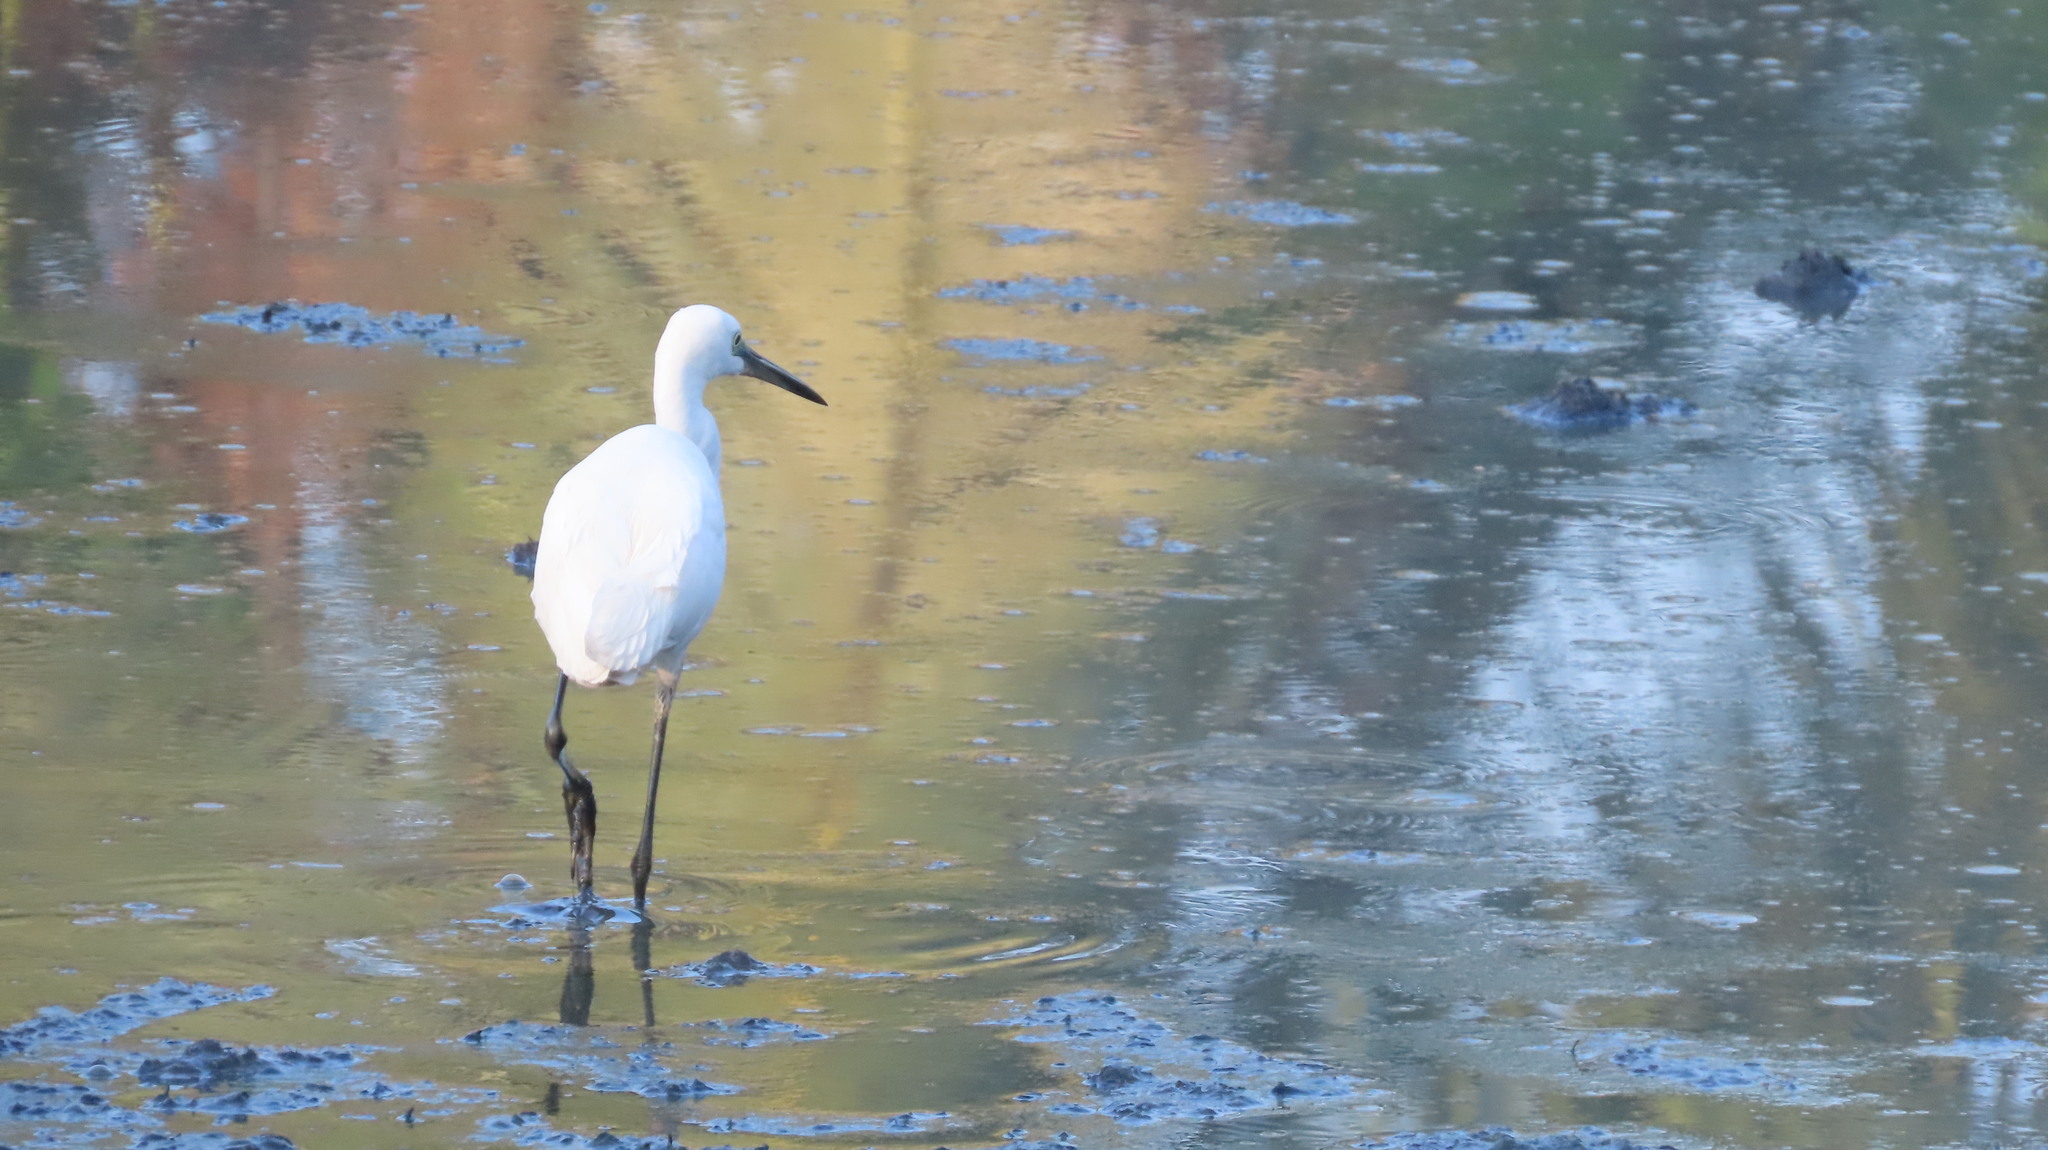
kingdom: Animalia
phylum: Chordata
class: Aves
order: Pelecaniformes
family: Ardeidae
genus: Egretta
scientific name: Egretta garzetta
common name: Little egret
